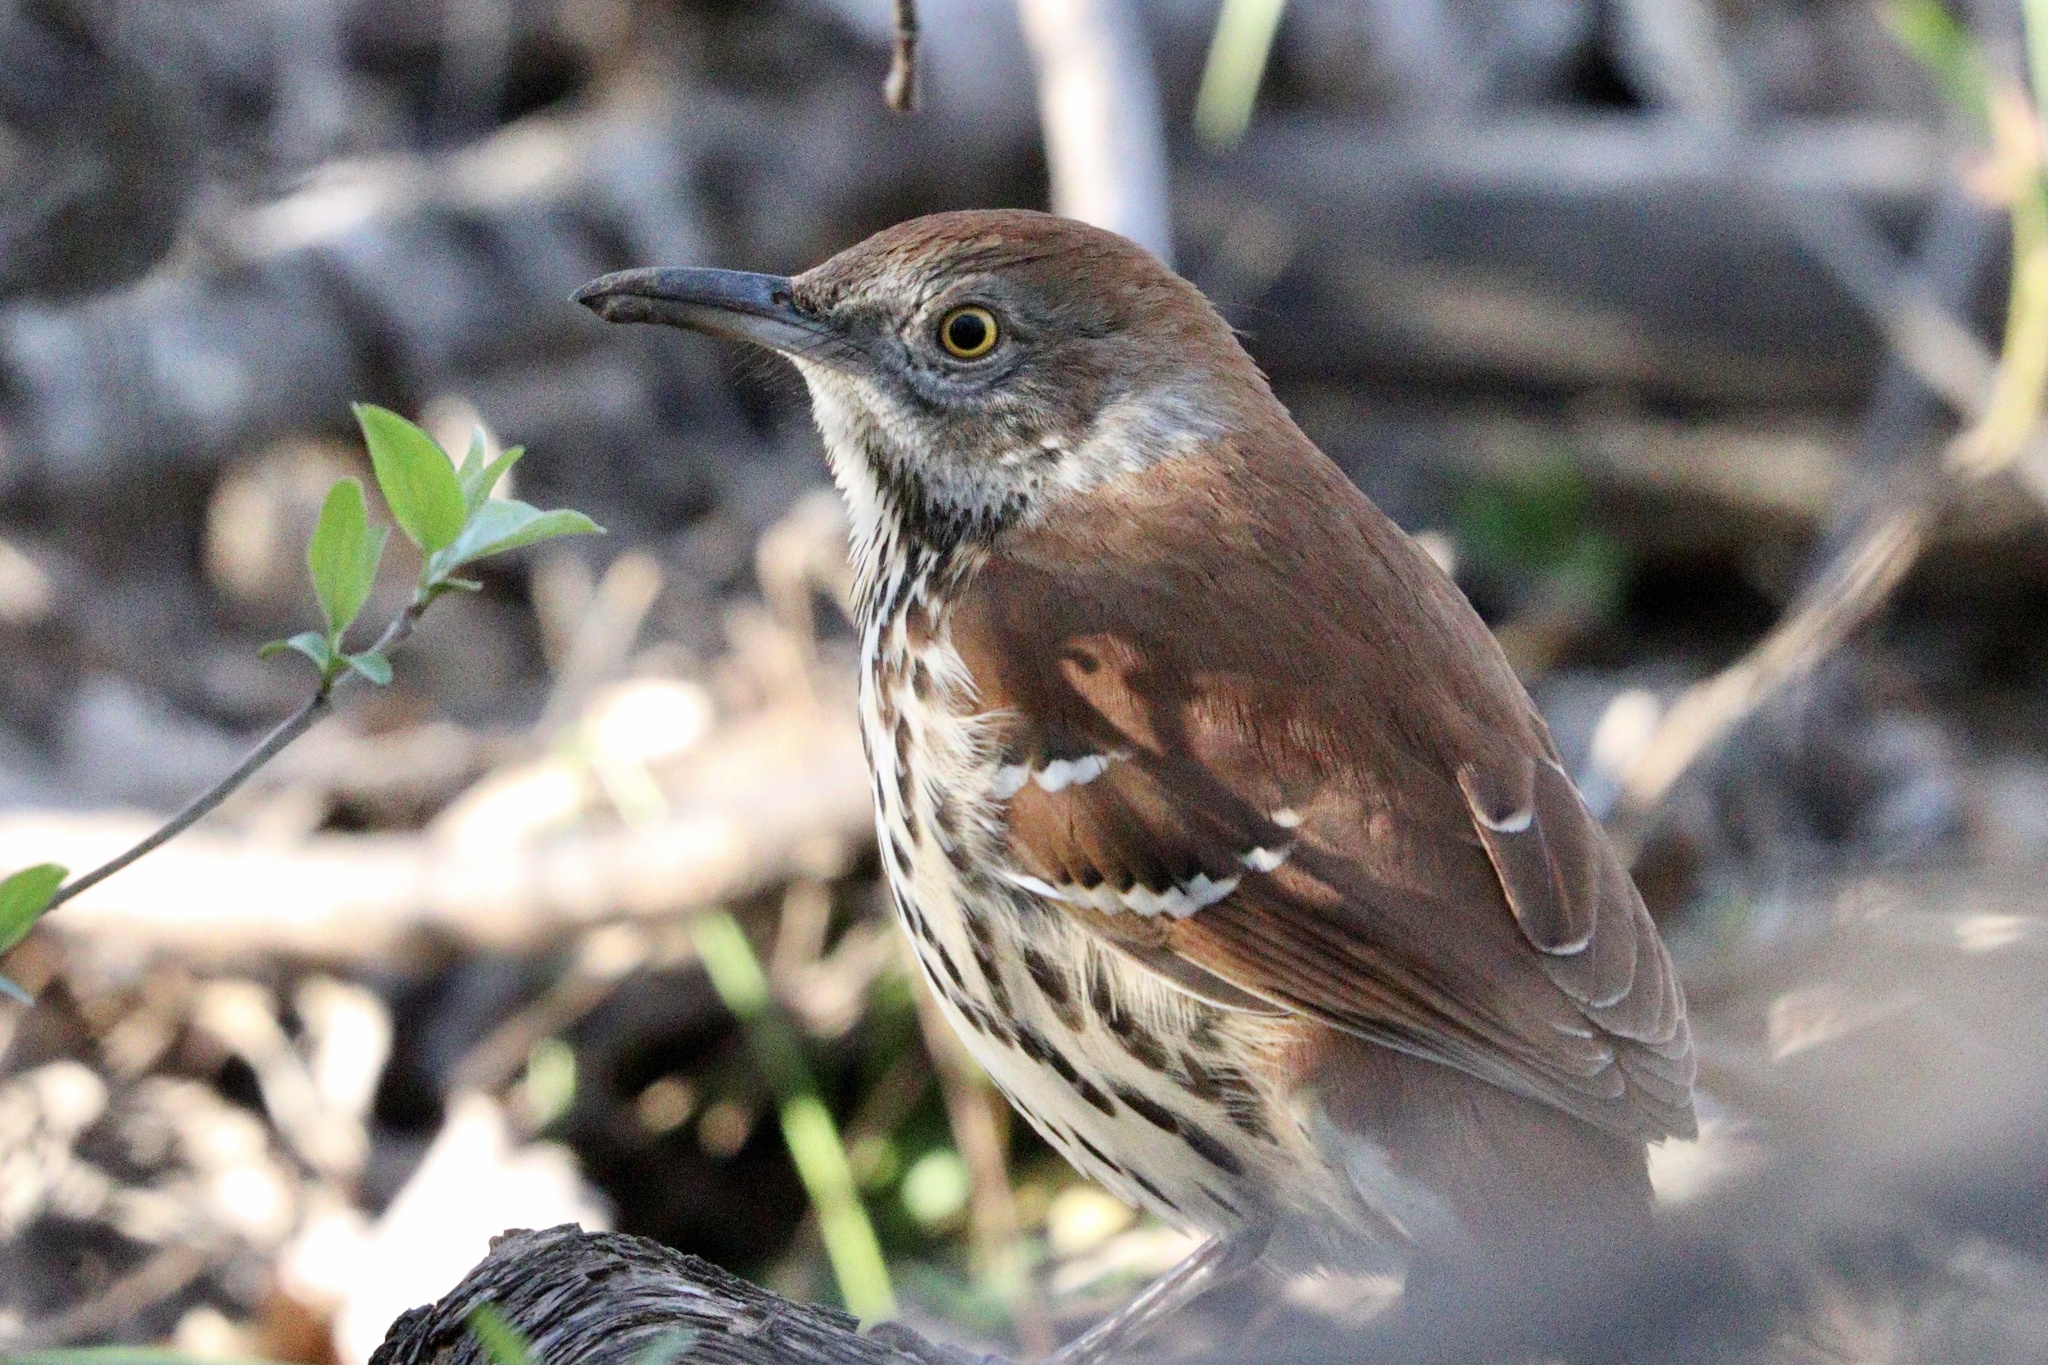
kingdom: Animalia
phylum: Chordata
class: Aves
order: Passeriformes
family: Mimidae
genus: Toxostoma
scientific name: Toxostoma rufum
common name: Brown thrasher
